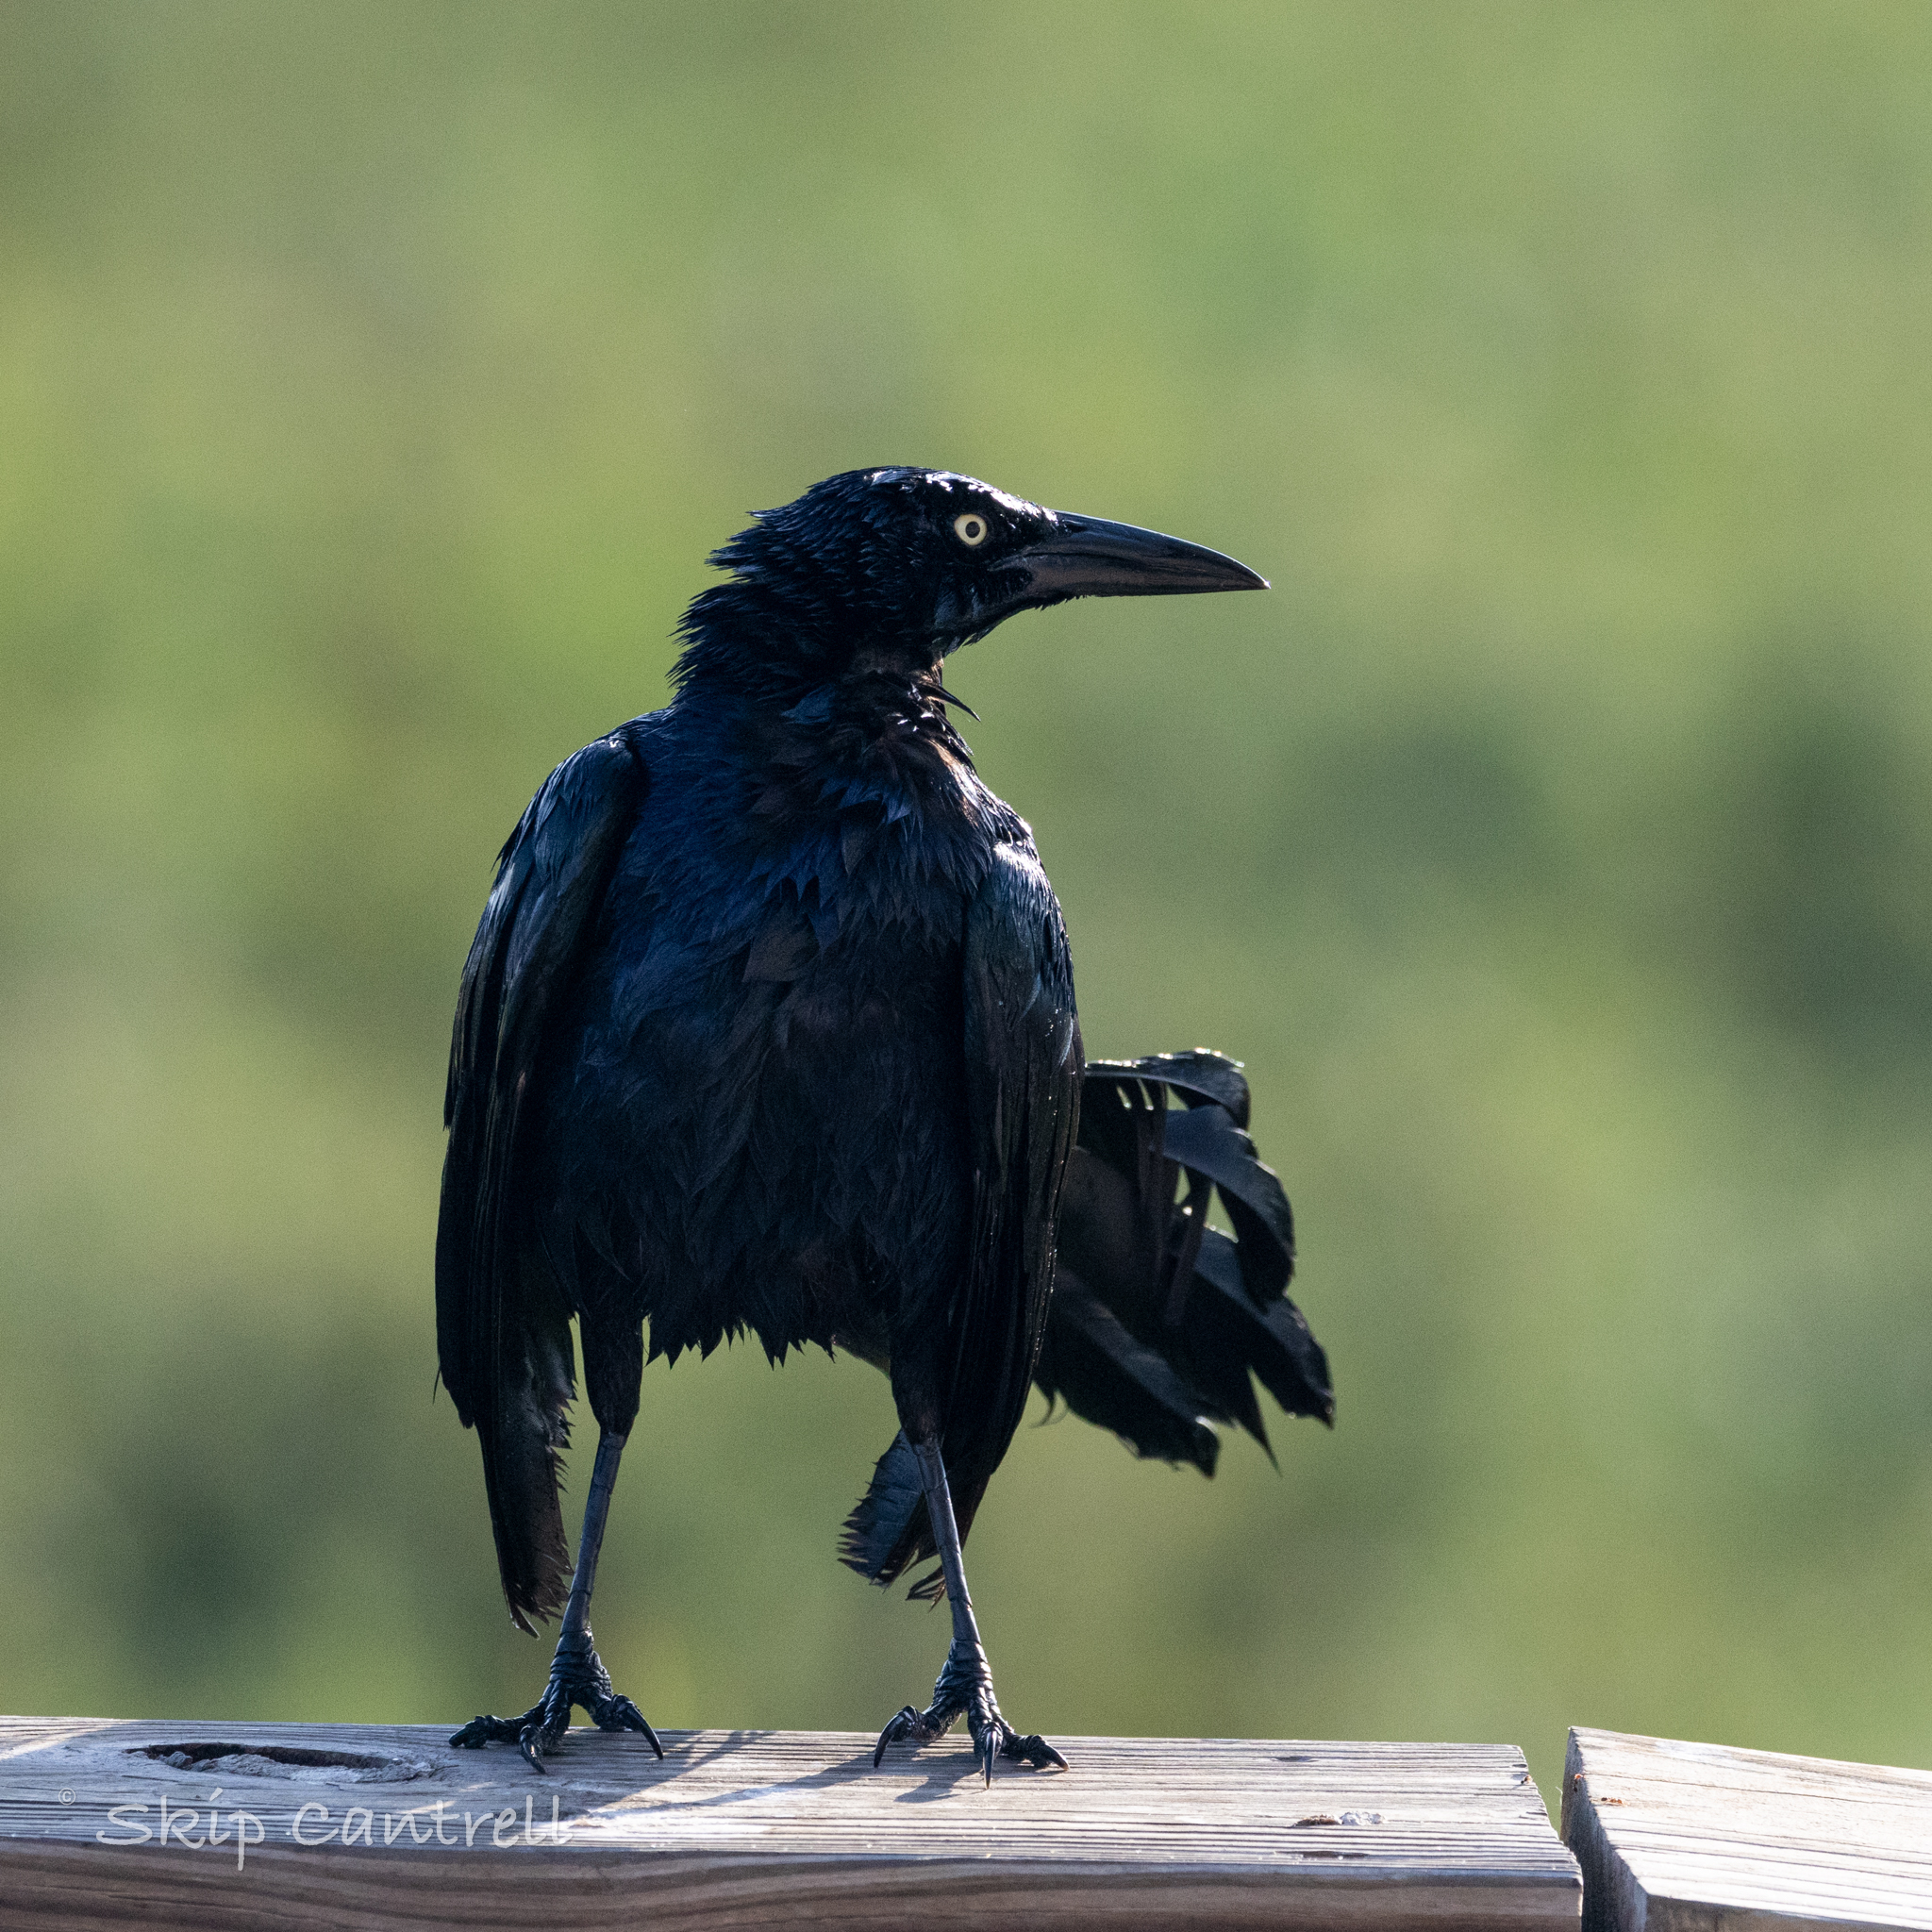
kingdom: Animalia
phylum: Chordata
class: Aves
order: Passeriformes
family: Icteridae
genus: Quiscalus
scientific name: Quiscalus mexicanus
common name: Great-tailed grackle
